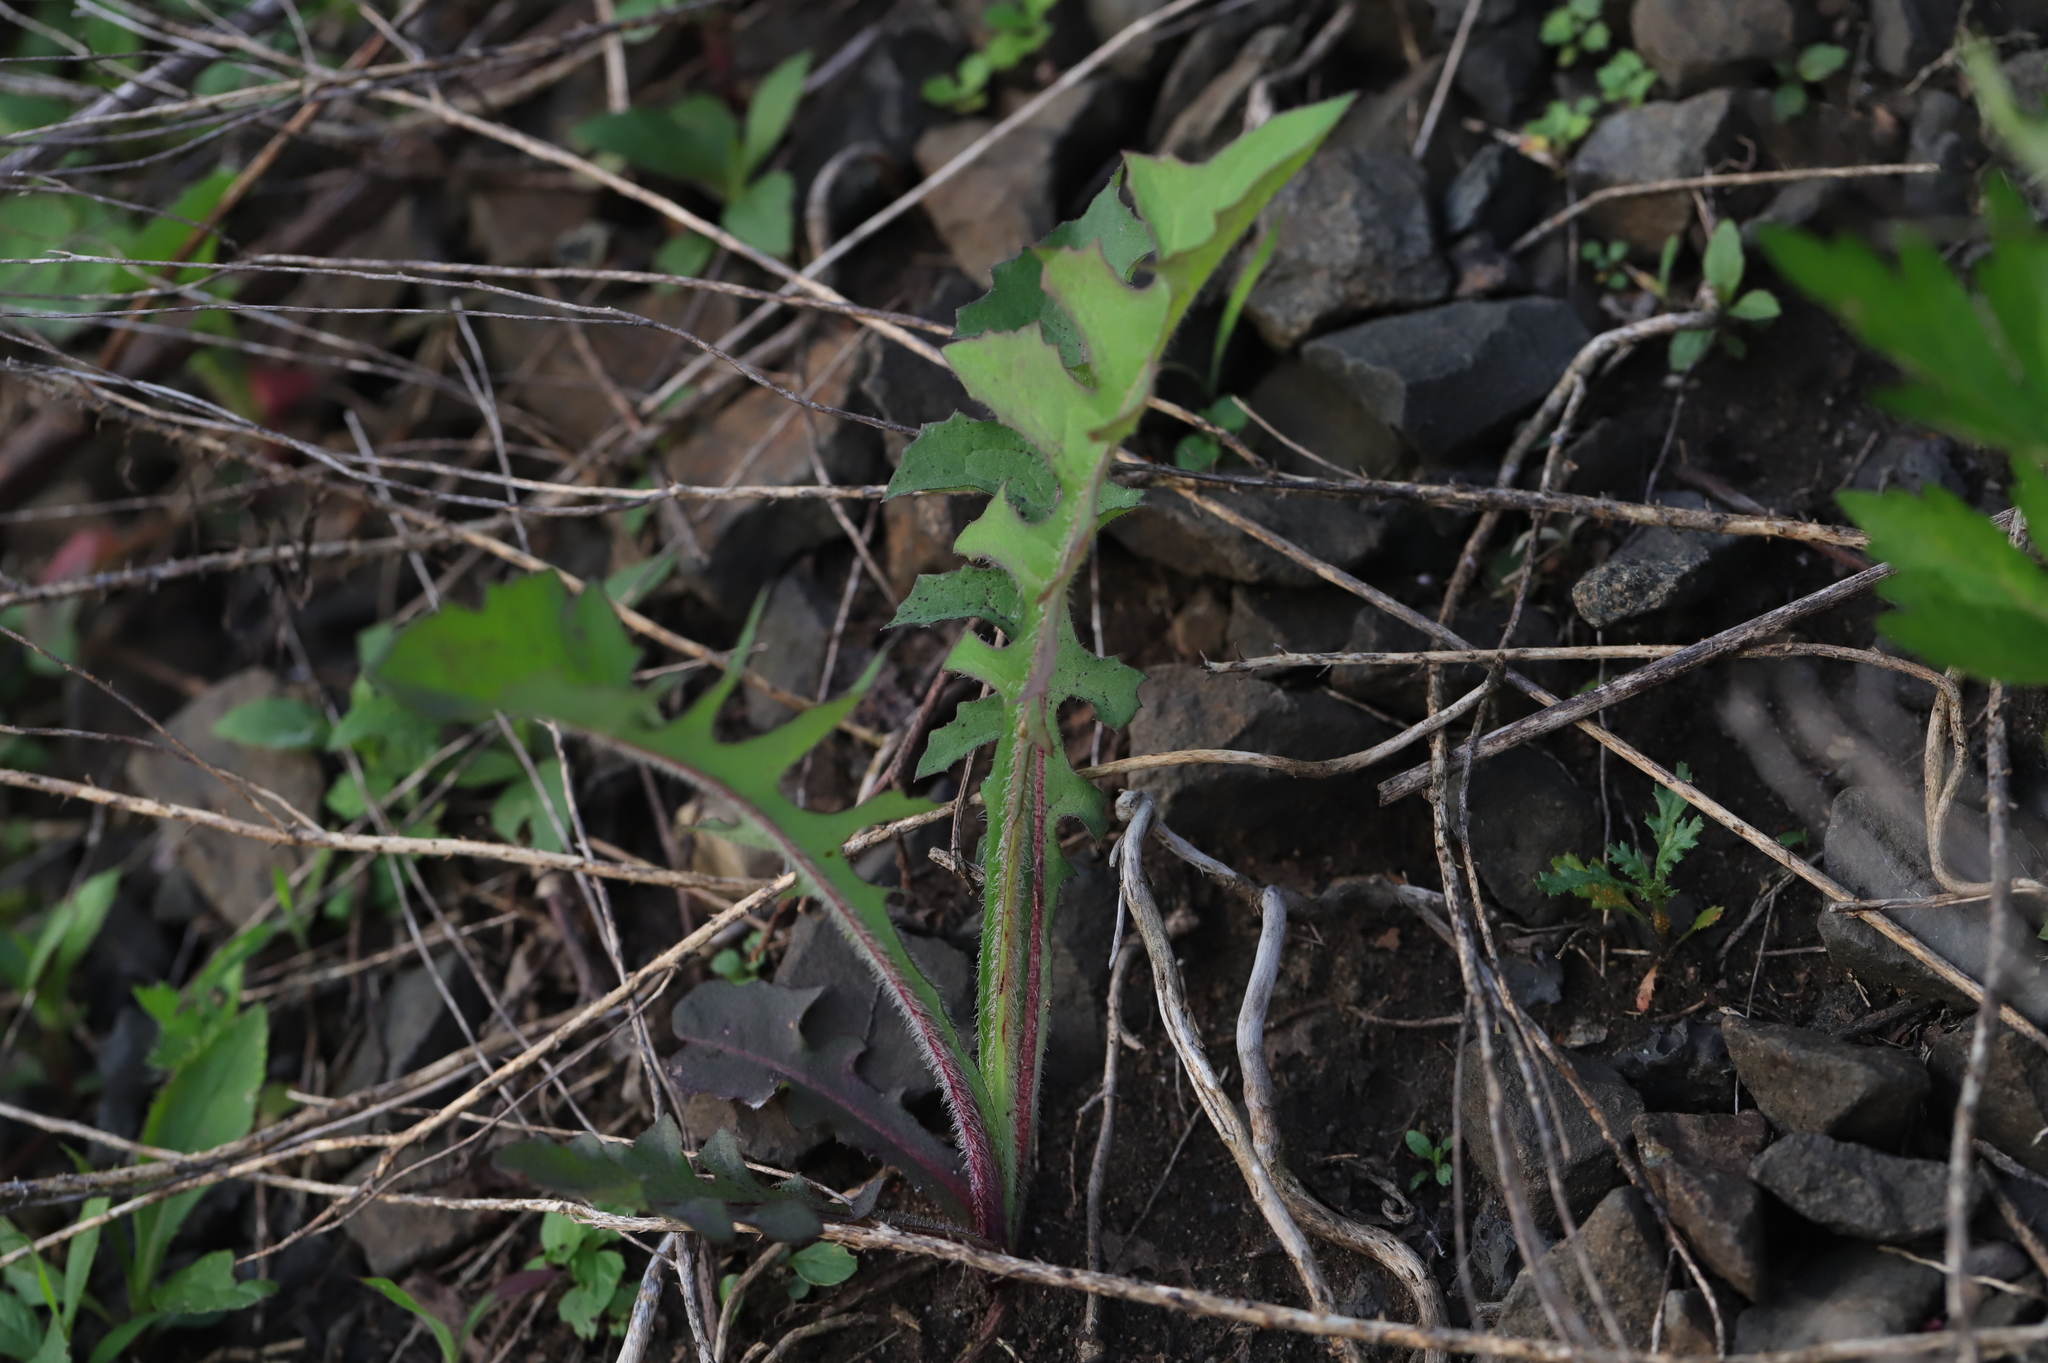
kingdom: Plantae
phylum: Tracheophyta
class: Magnoliopsida
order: Asterales
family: Asteraceae
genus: Taraxacum
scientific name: Taraxacum officinale
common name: Common dandelion
